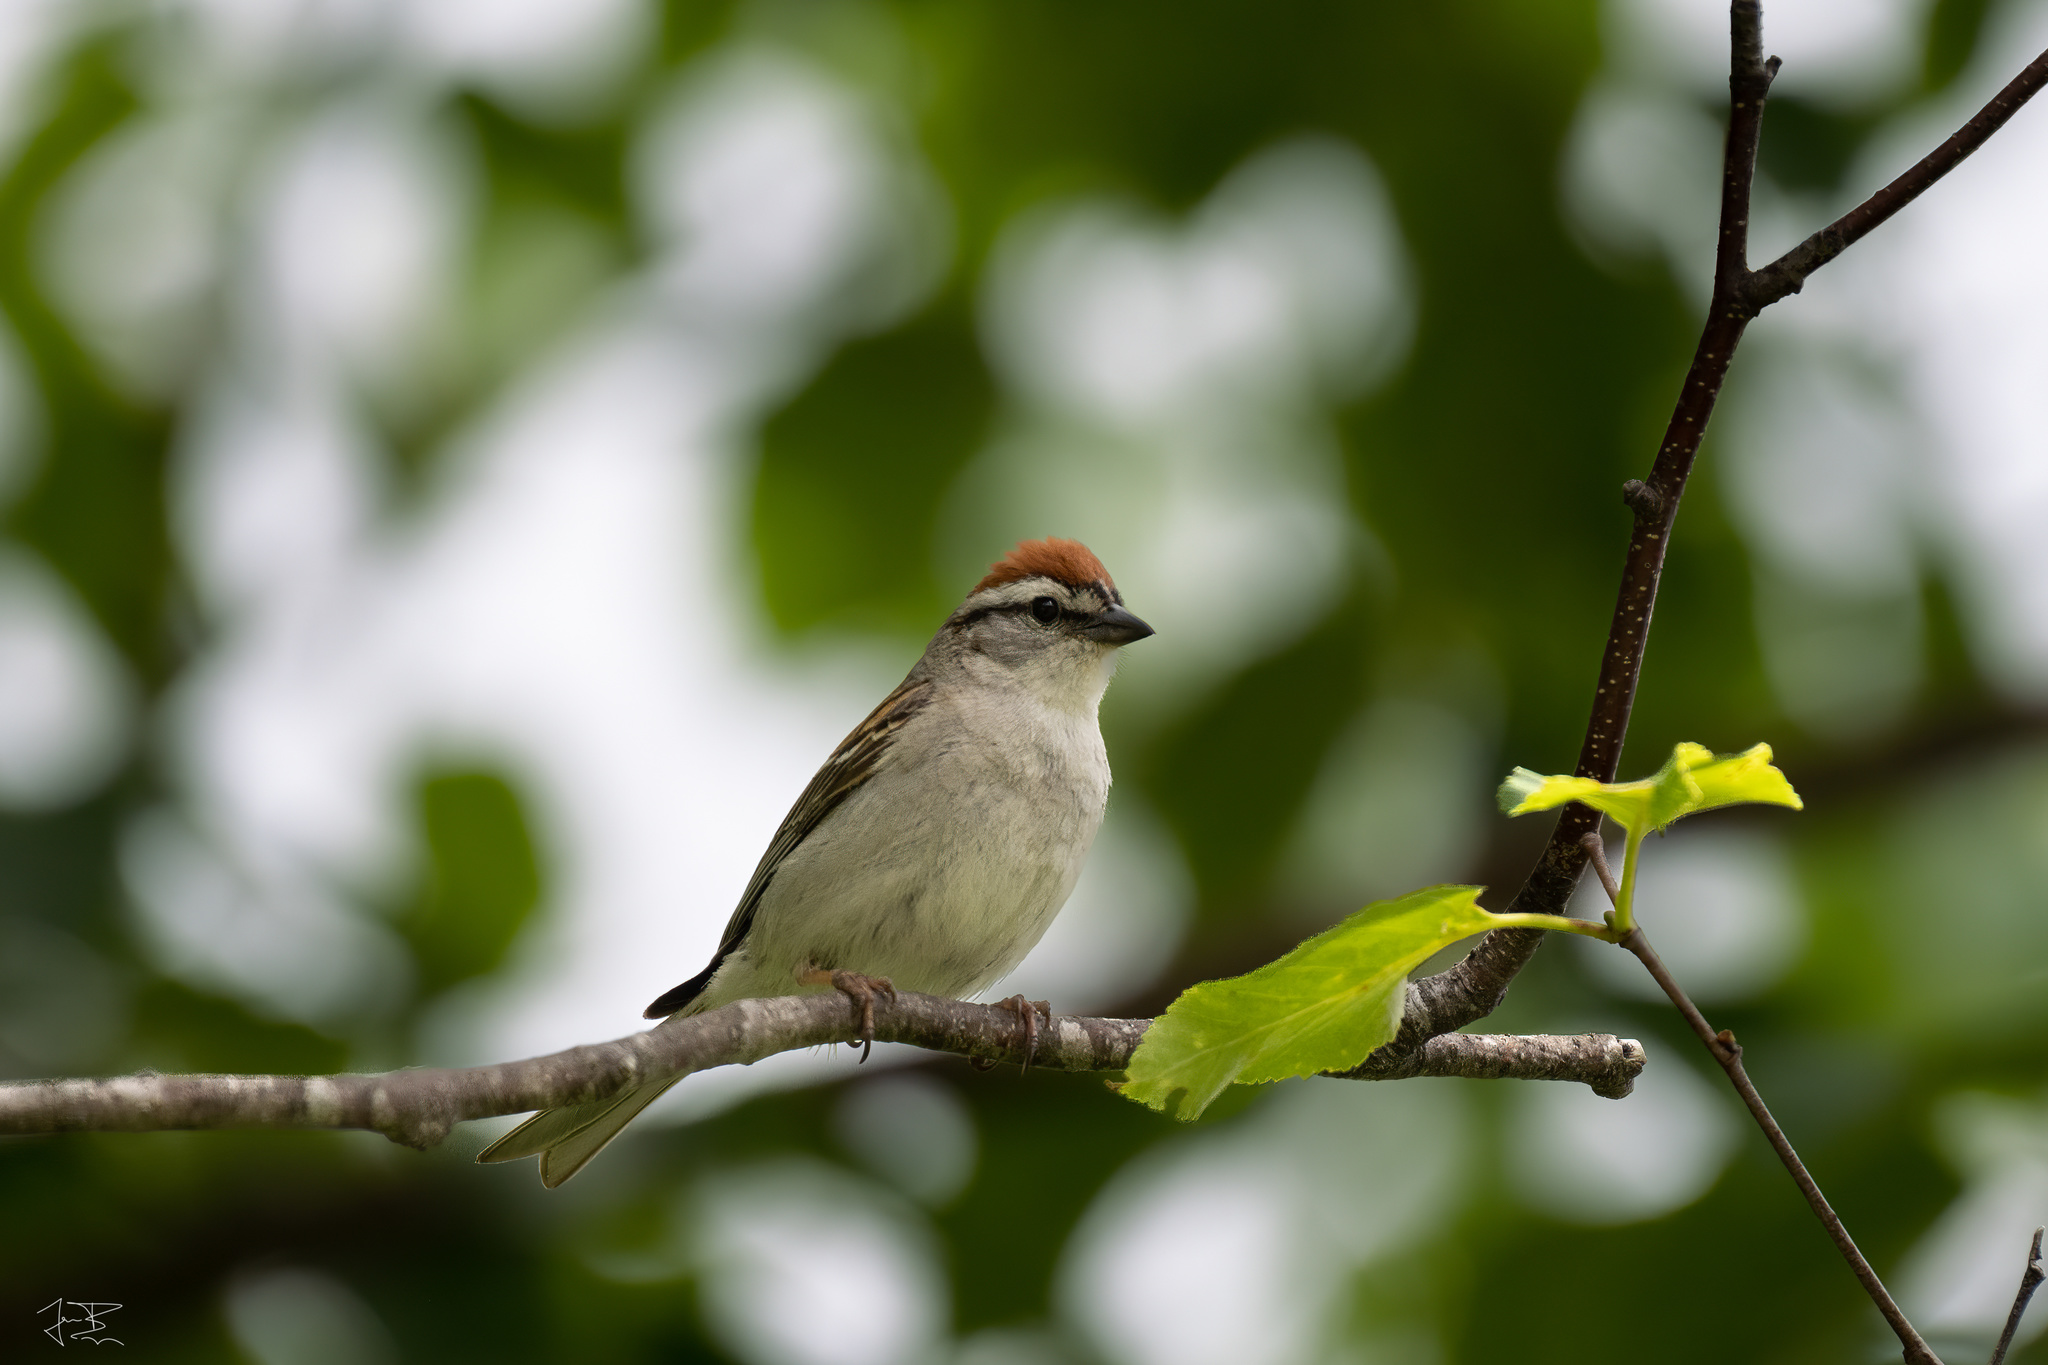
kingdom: Animalia
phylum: Chordata
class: Aves
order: Passeriformes
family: Passerellidae
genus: Spizella
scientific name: Spizella passerina
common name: Chipping sparrow
